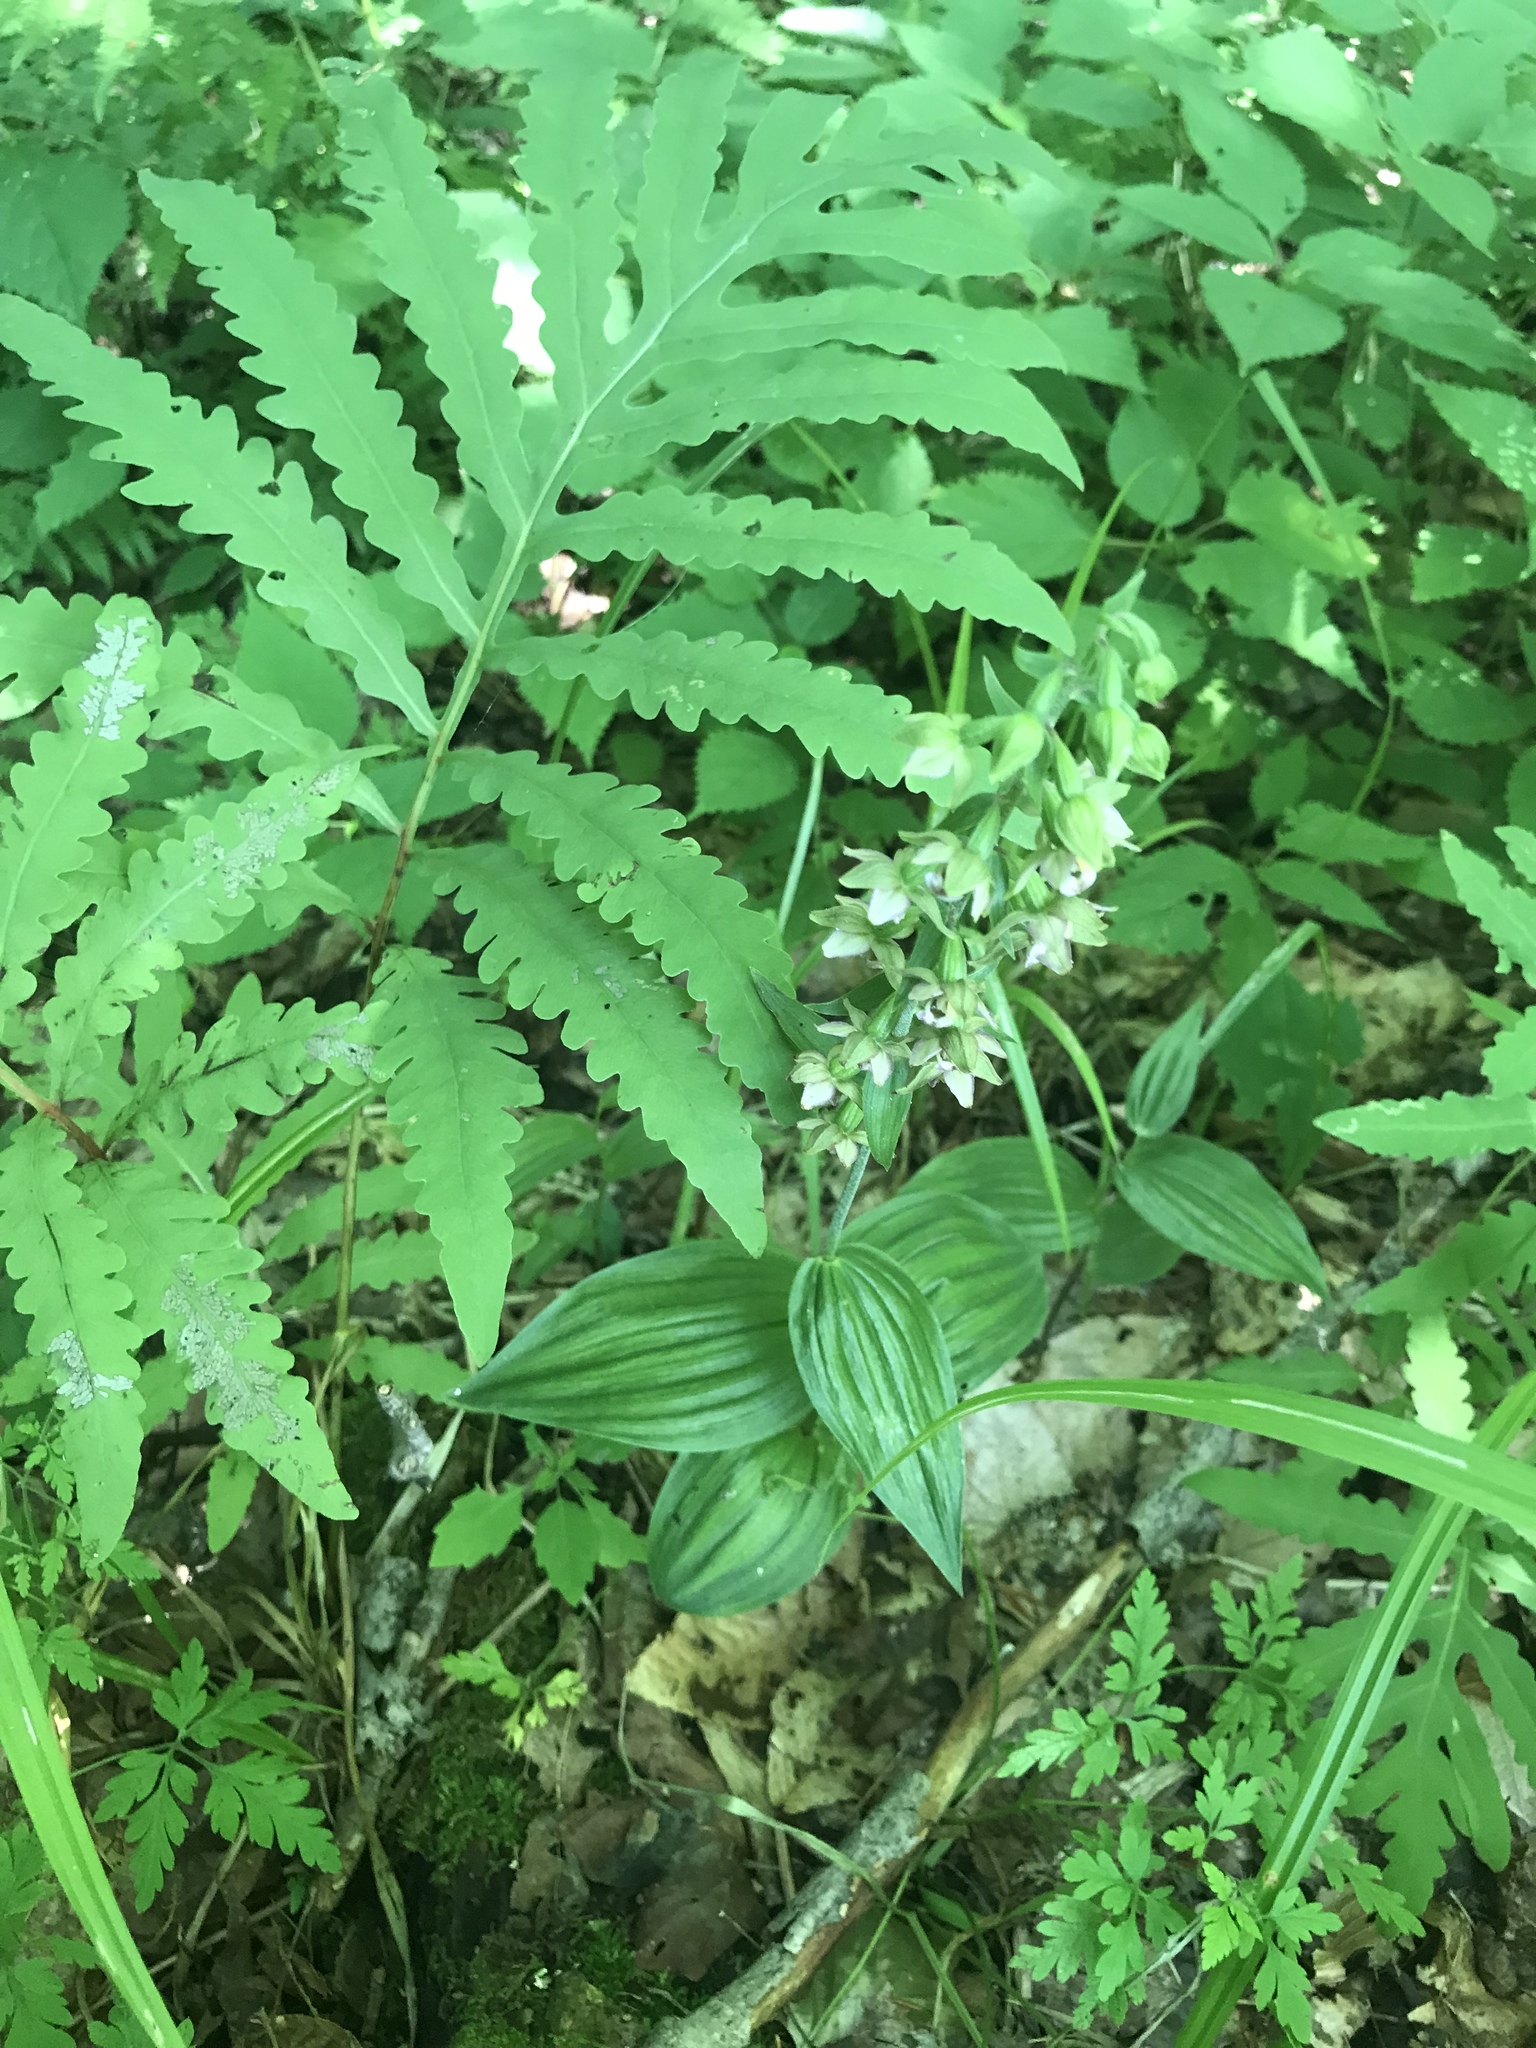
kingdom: Plantae
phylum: Tracheophyta
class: Liliopsida
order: Asparagales
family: Orchidaceae
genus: Epipactis
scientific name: Epipactis helleborine
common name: Broad-leaved helleborine
